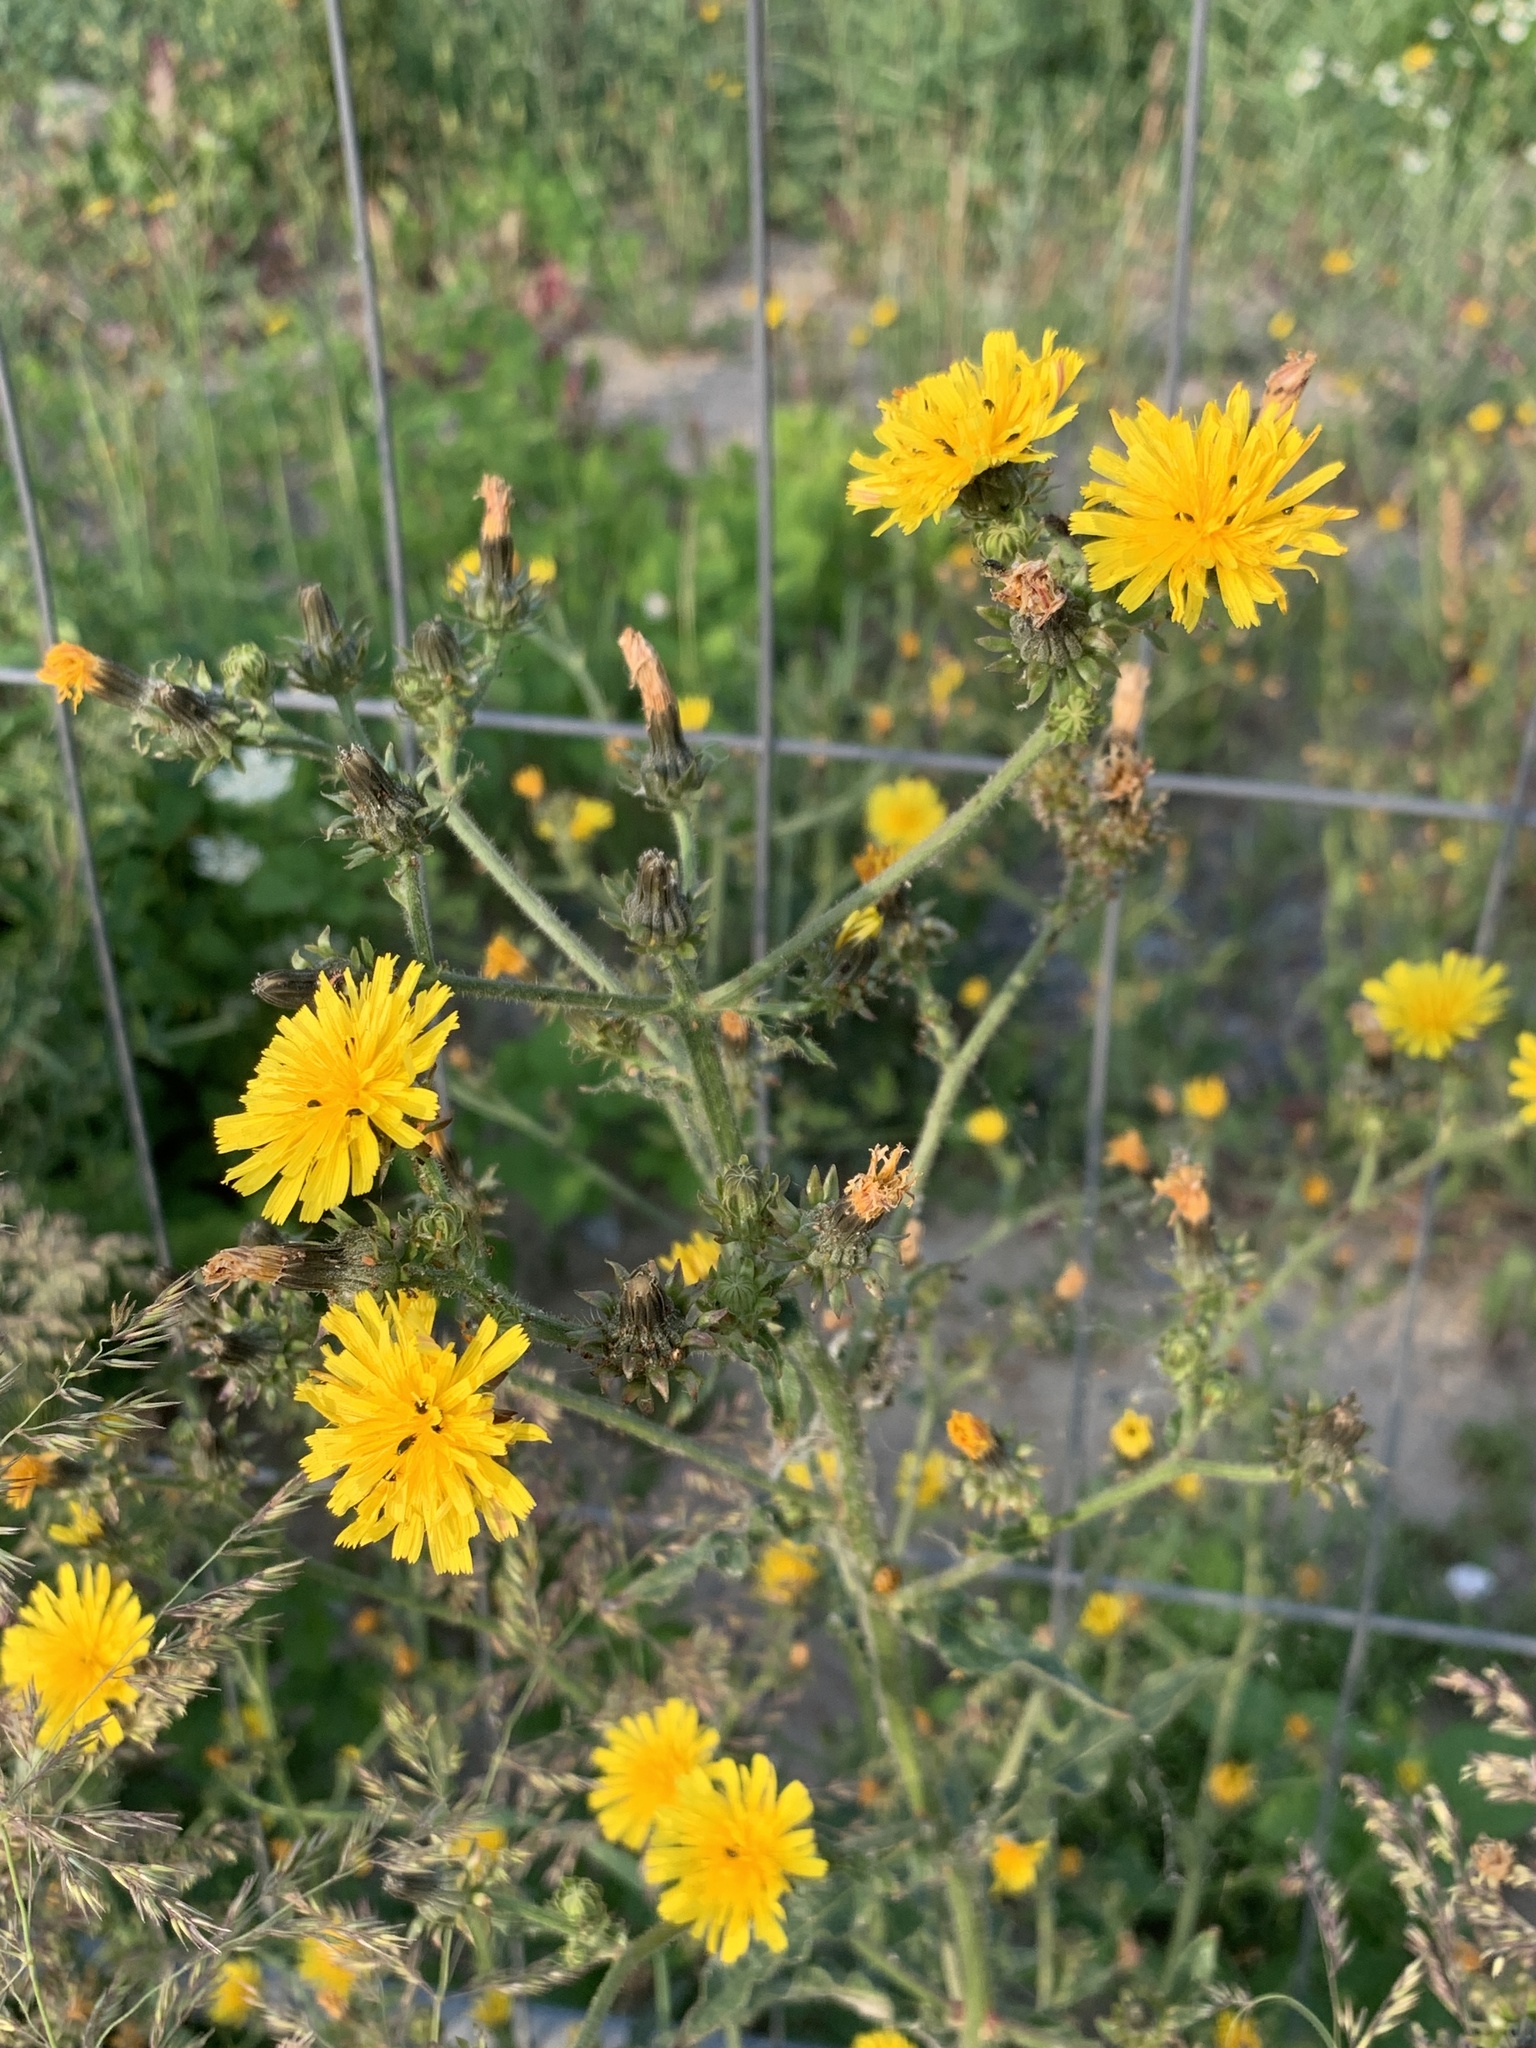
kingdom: Plantae
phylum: Tracheophyta
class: Magnoliopsida
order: Asterales
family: Asteraceae
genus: Picris
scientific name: Picris hieracioides
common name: Hawkweed oxtongue
